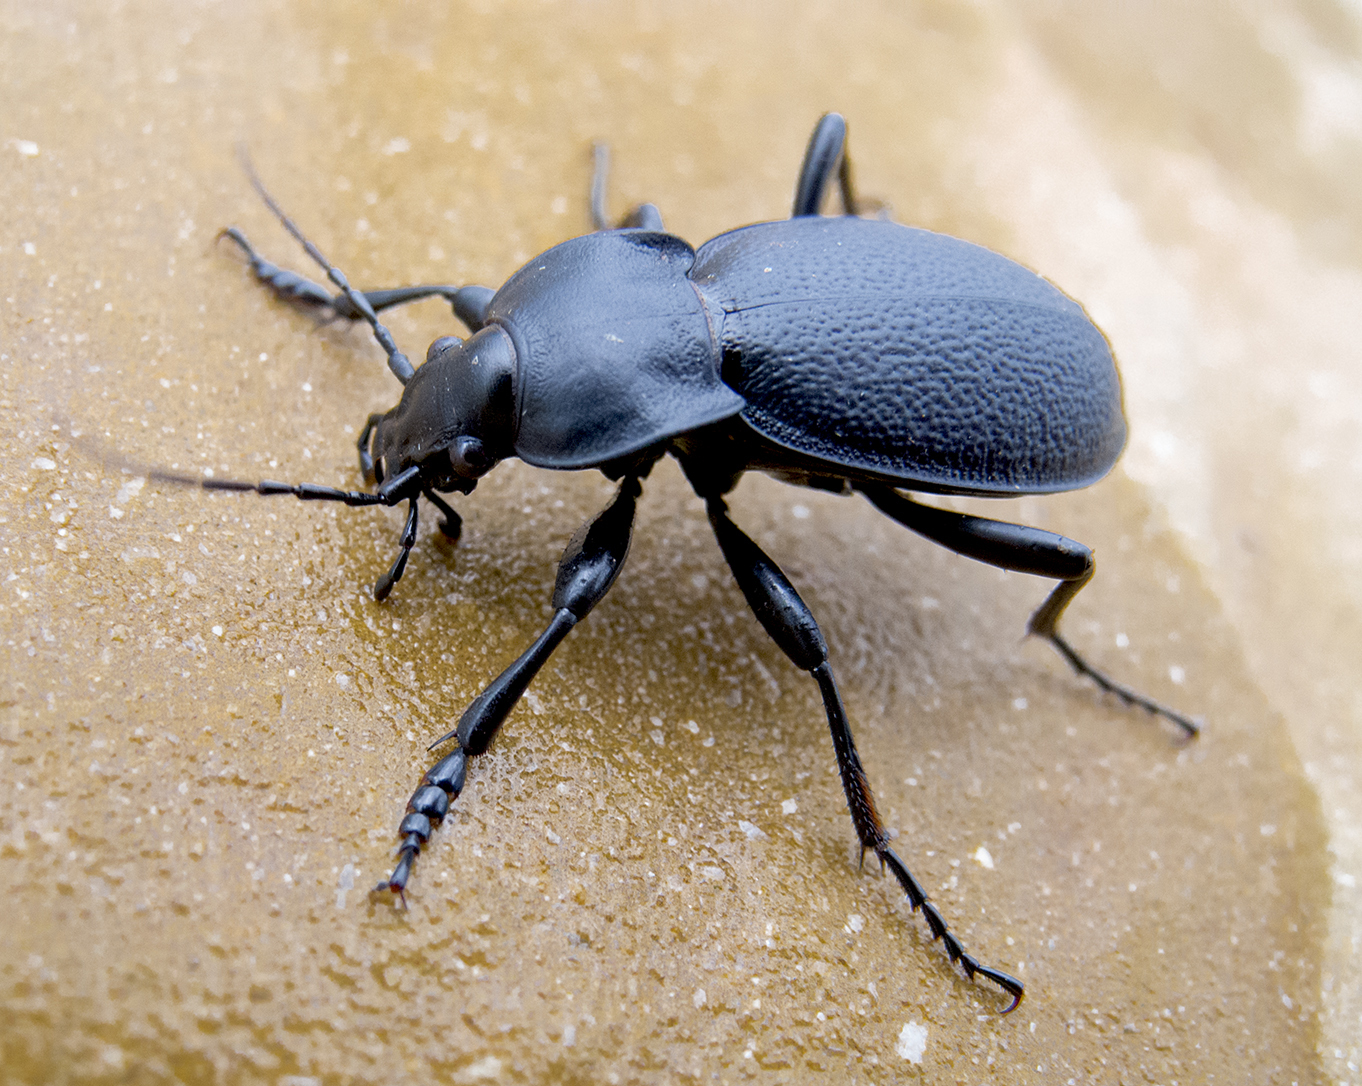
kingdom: Animalia
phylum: Arthropoda
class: Insecta
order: Coleoptera
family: Carabidae
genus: Carabus
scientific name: Carabus coriaceus
